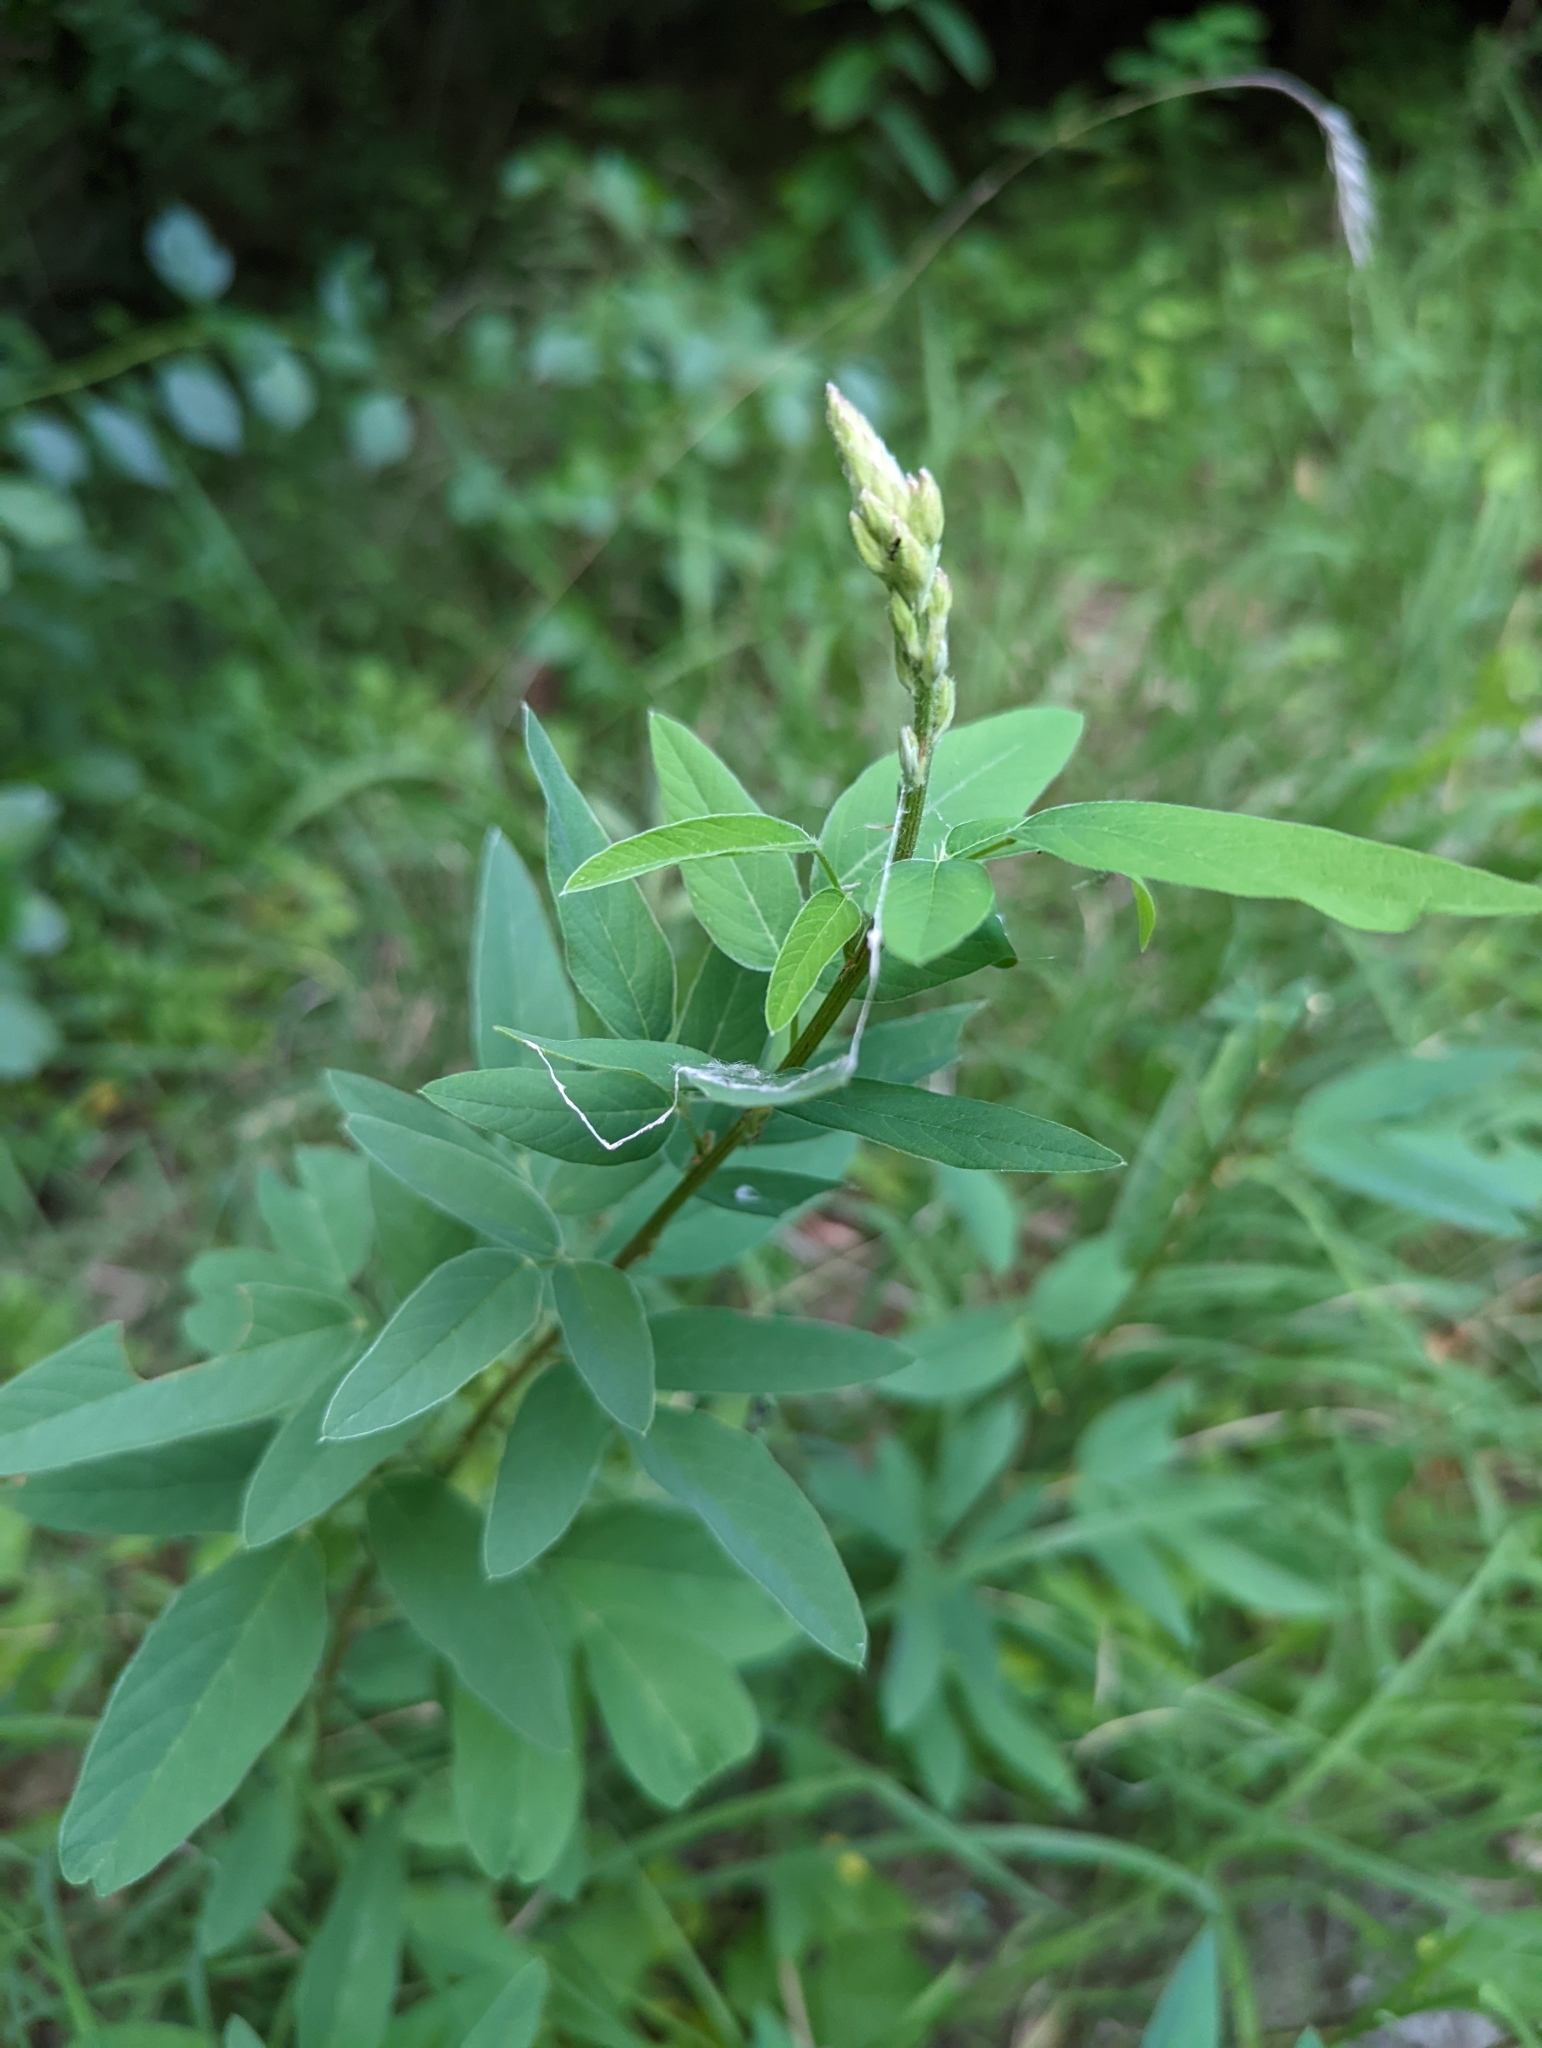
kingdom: Plantae
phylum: Tracheophyta
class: Magnoliopsida
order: Fabales
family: Fabaceae
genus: Desmodium
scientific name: Desmodium canadense
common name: Canada tick-trefoil
